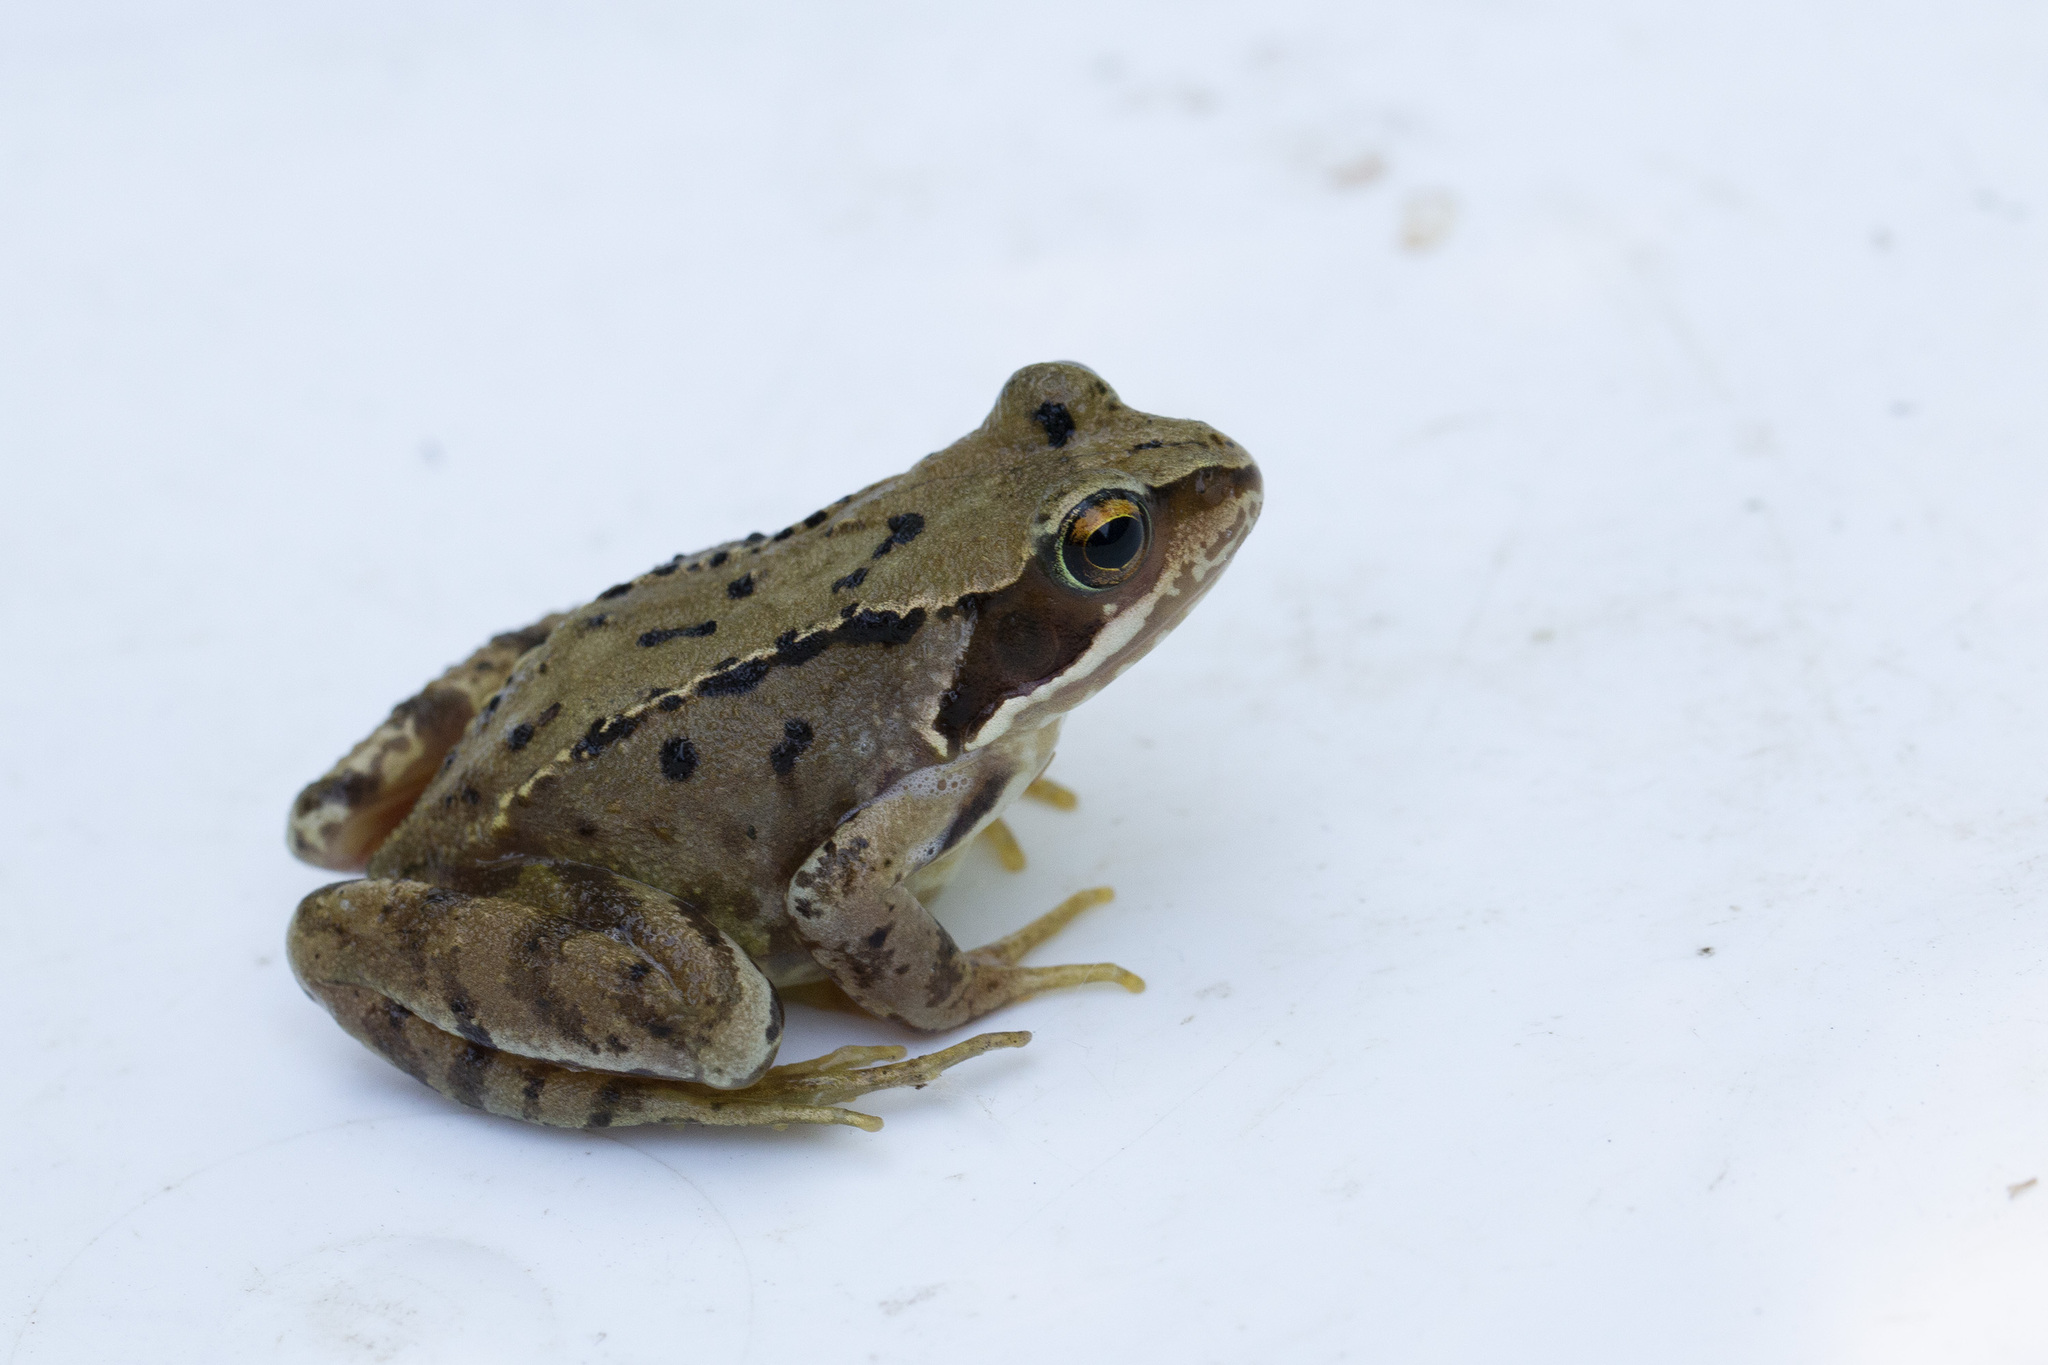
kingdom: Animalia
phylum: Chordata
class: Amphibia
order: Anura
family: Ranidae
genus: Rana
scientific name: Rana temporaria
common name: Common frog
